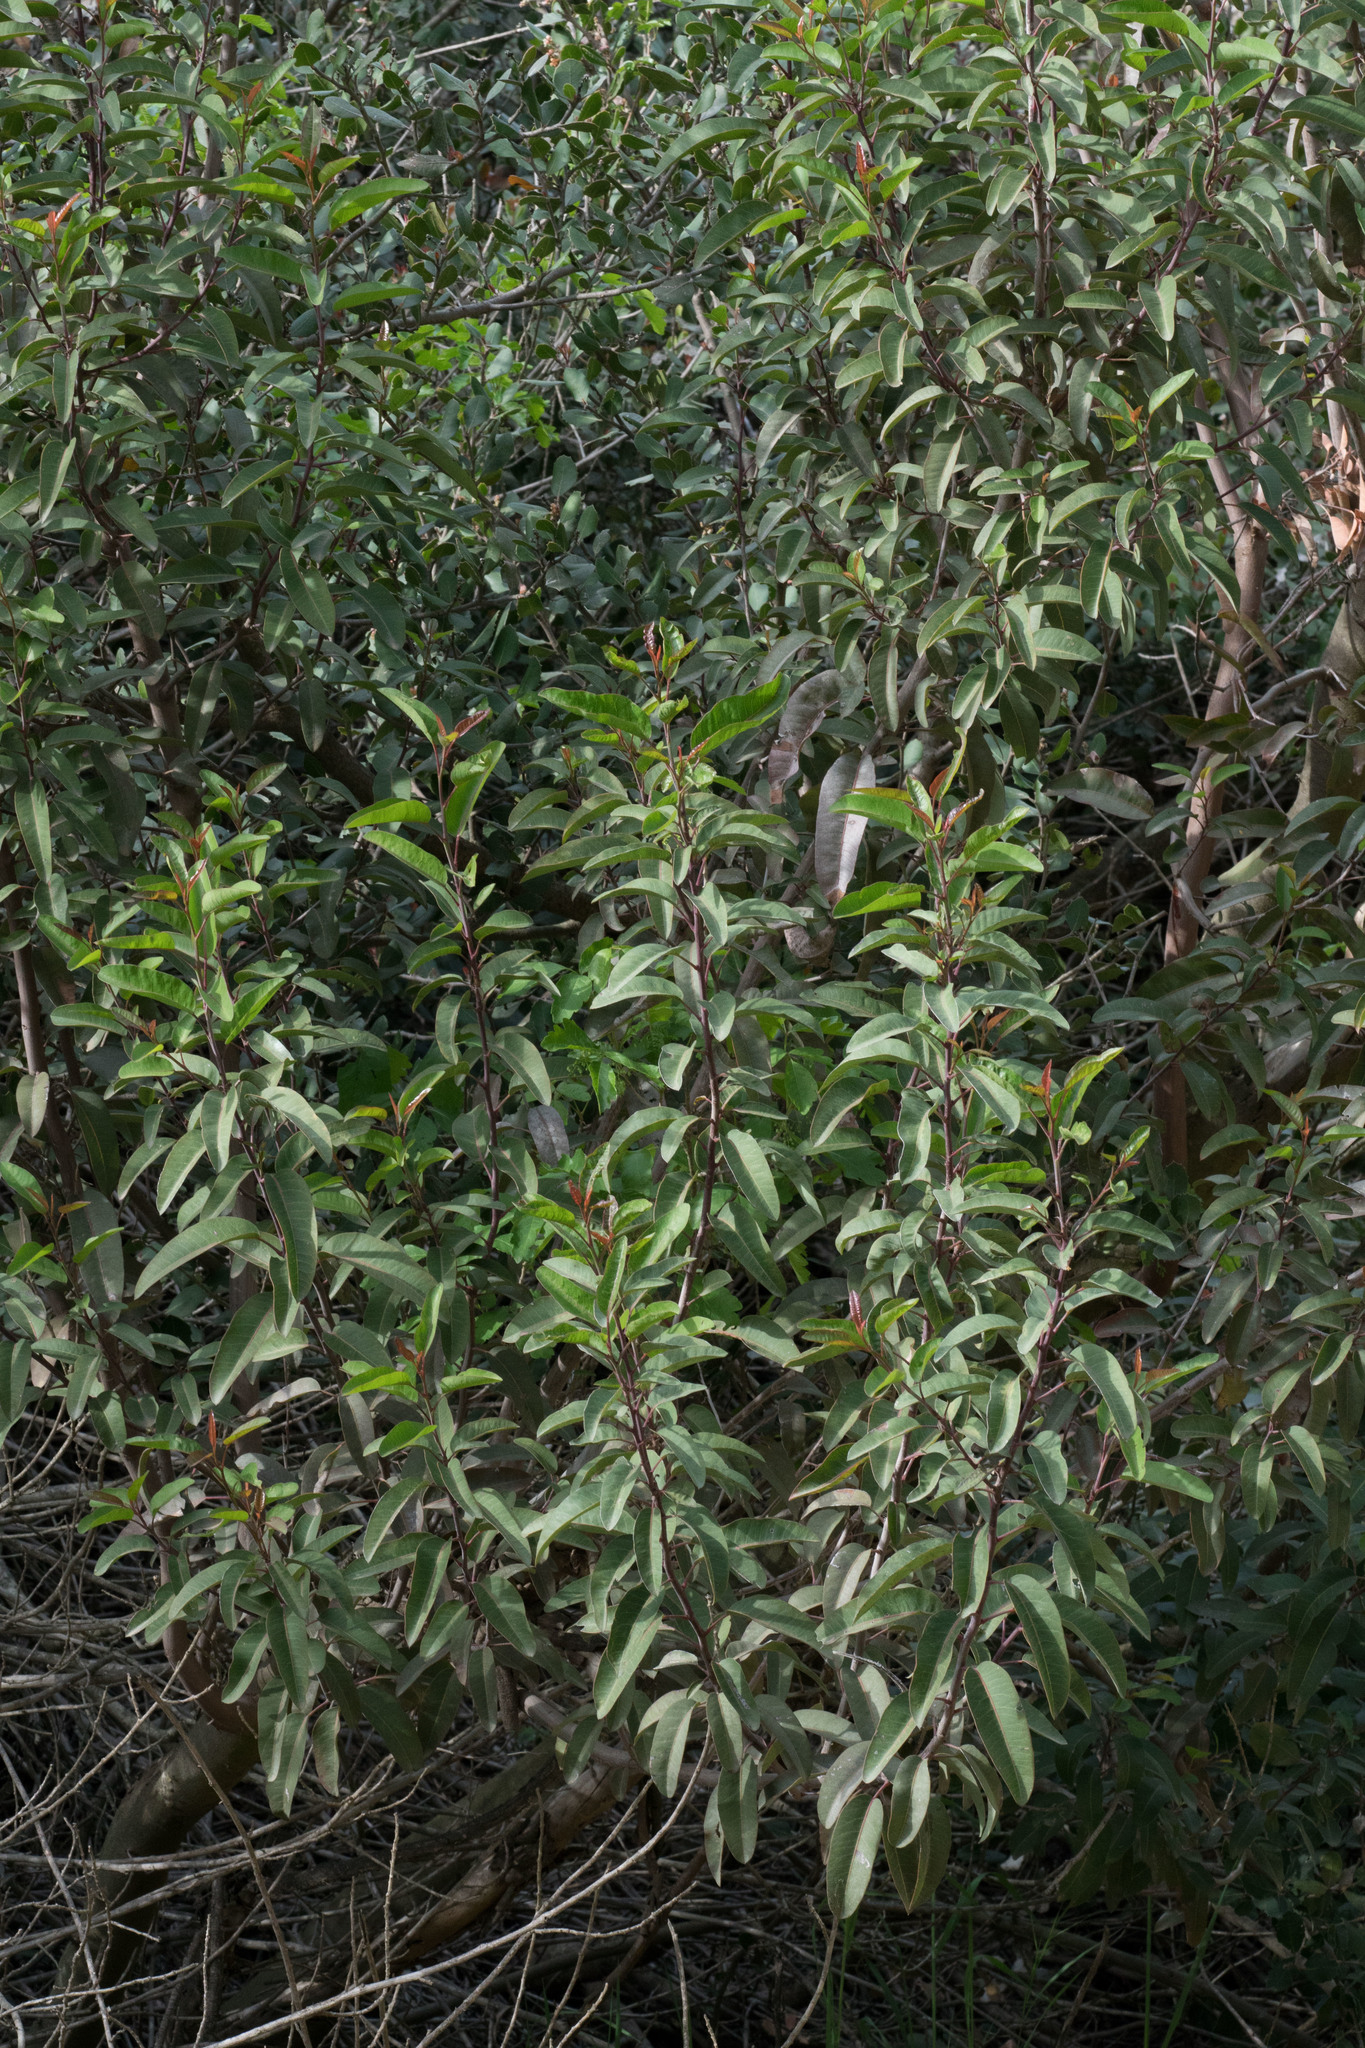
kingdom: Plantae
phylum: Tracheophyta
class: Magnoliopsida
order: Sapindales
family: Anacardiaceae
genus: Malosma
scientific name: Malosma laurina
